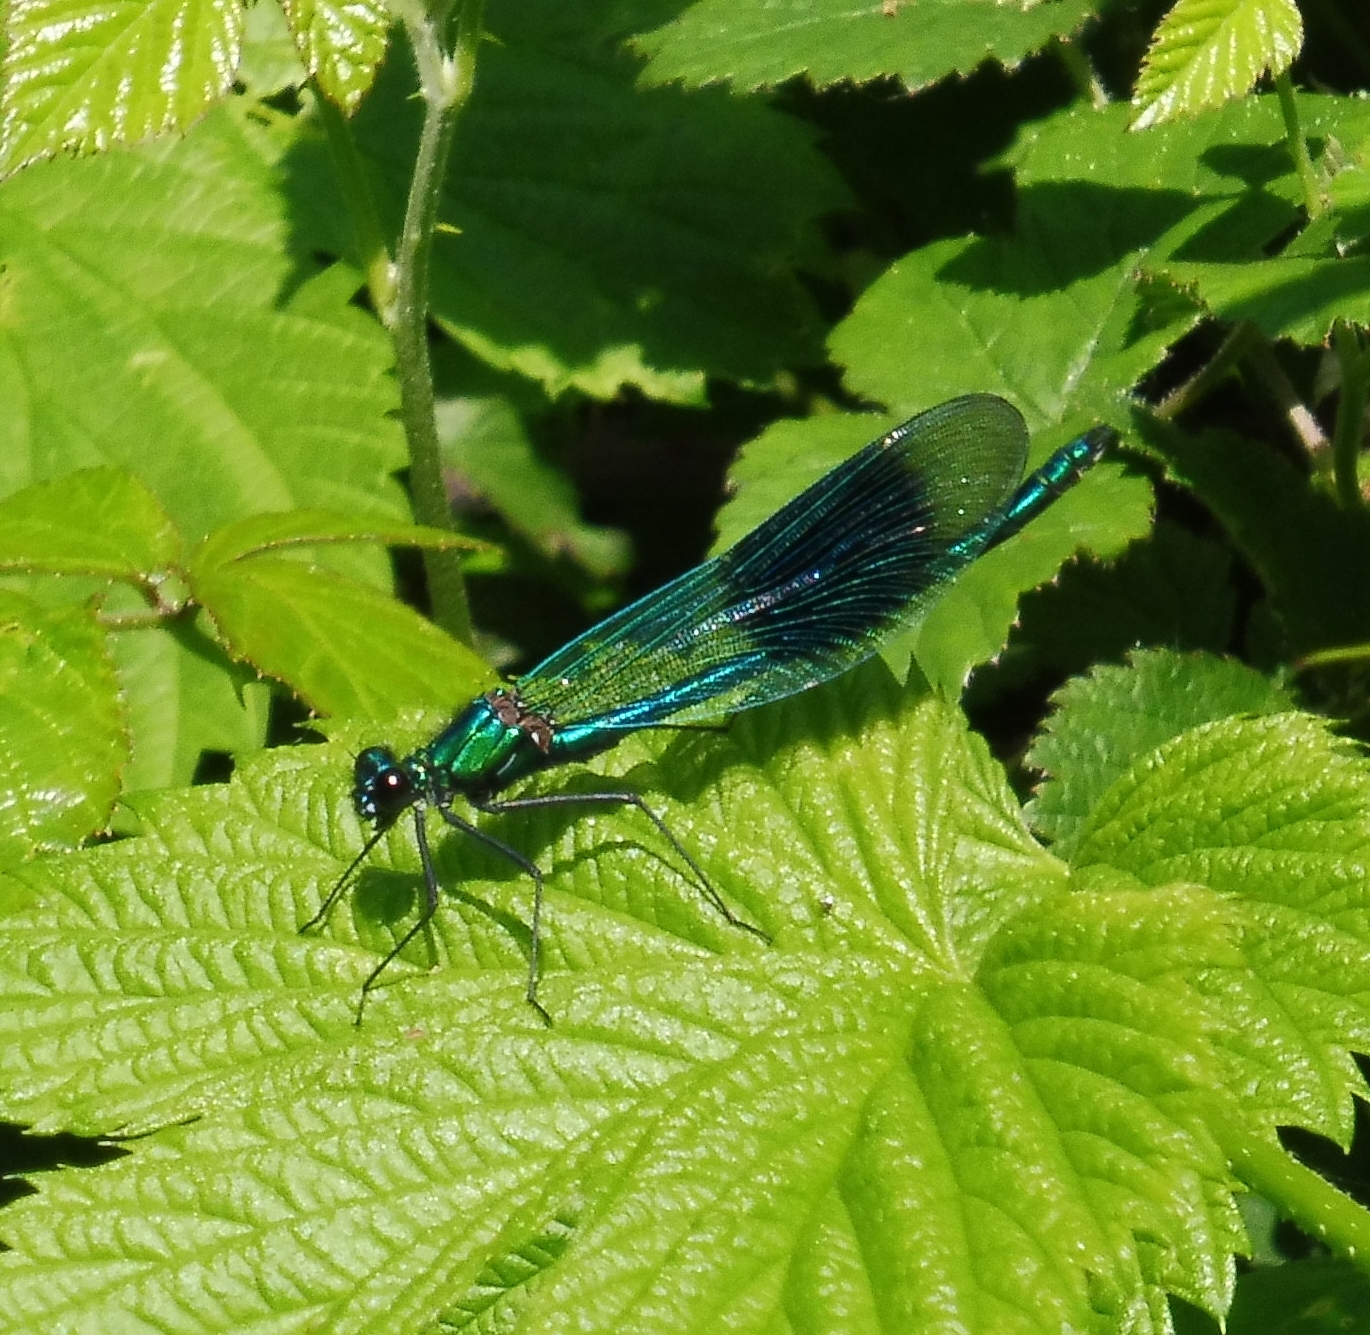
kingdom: Animalia
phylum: Arthropoda
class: Insecta
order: Odonata
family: Calopterygidae
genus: Calopteryx
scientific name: Calopteryx splendens
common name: Banded demoiselle
